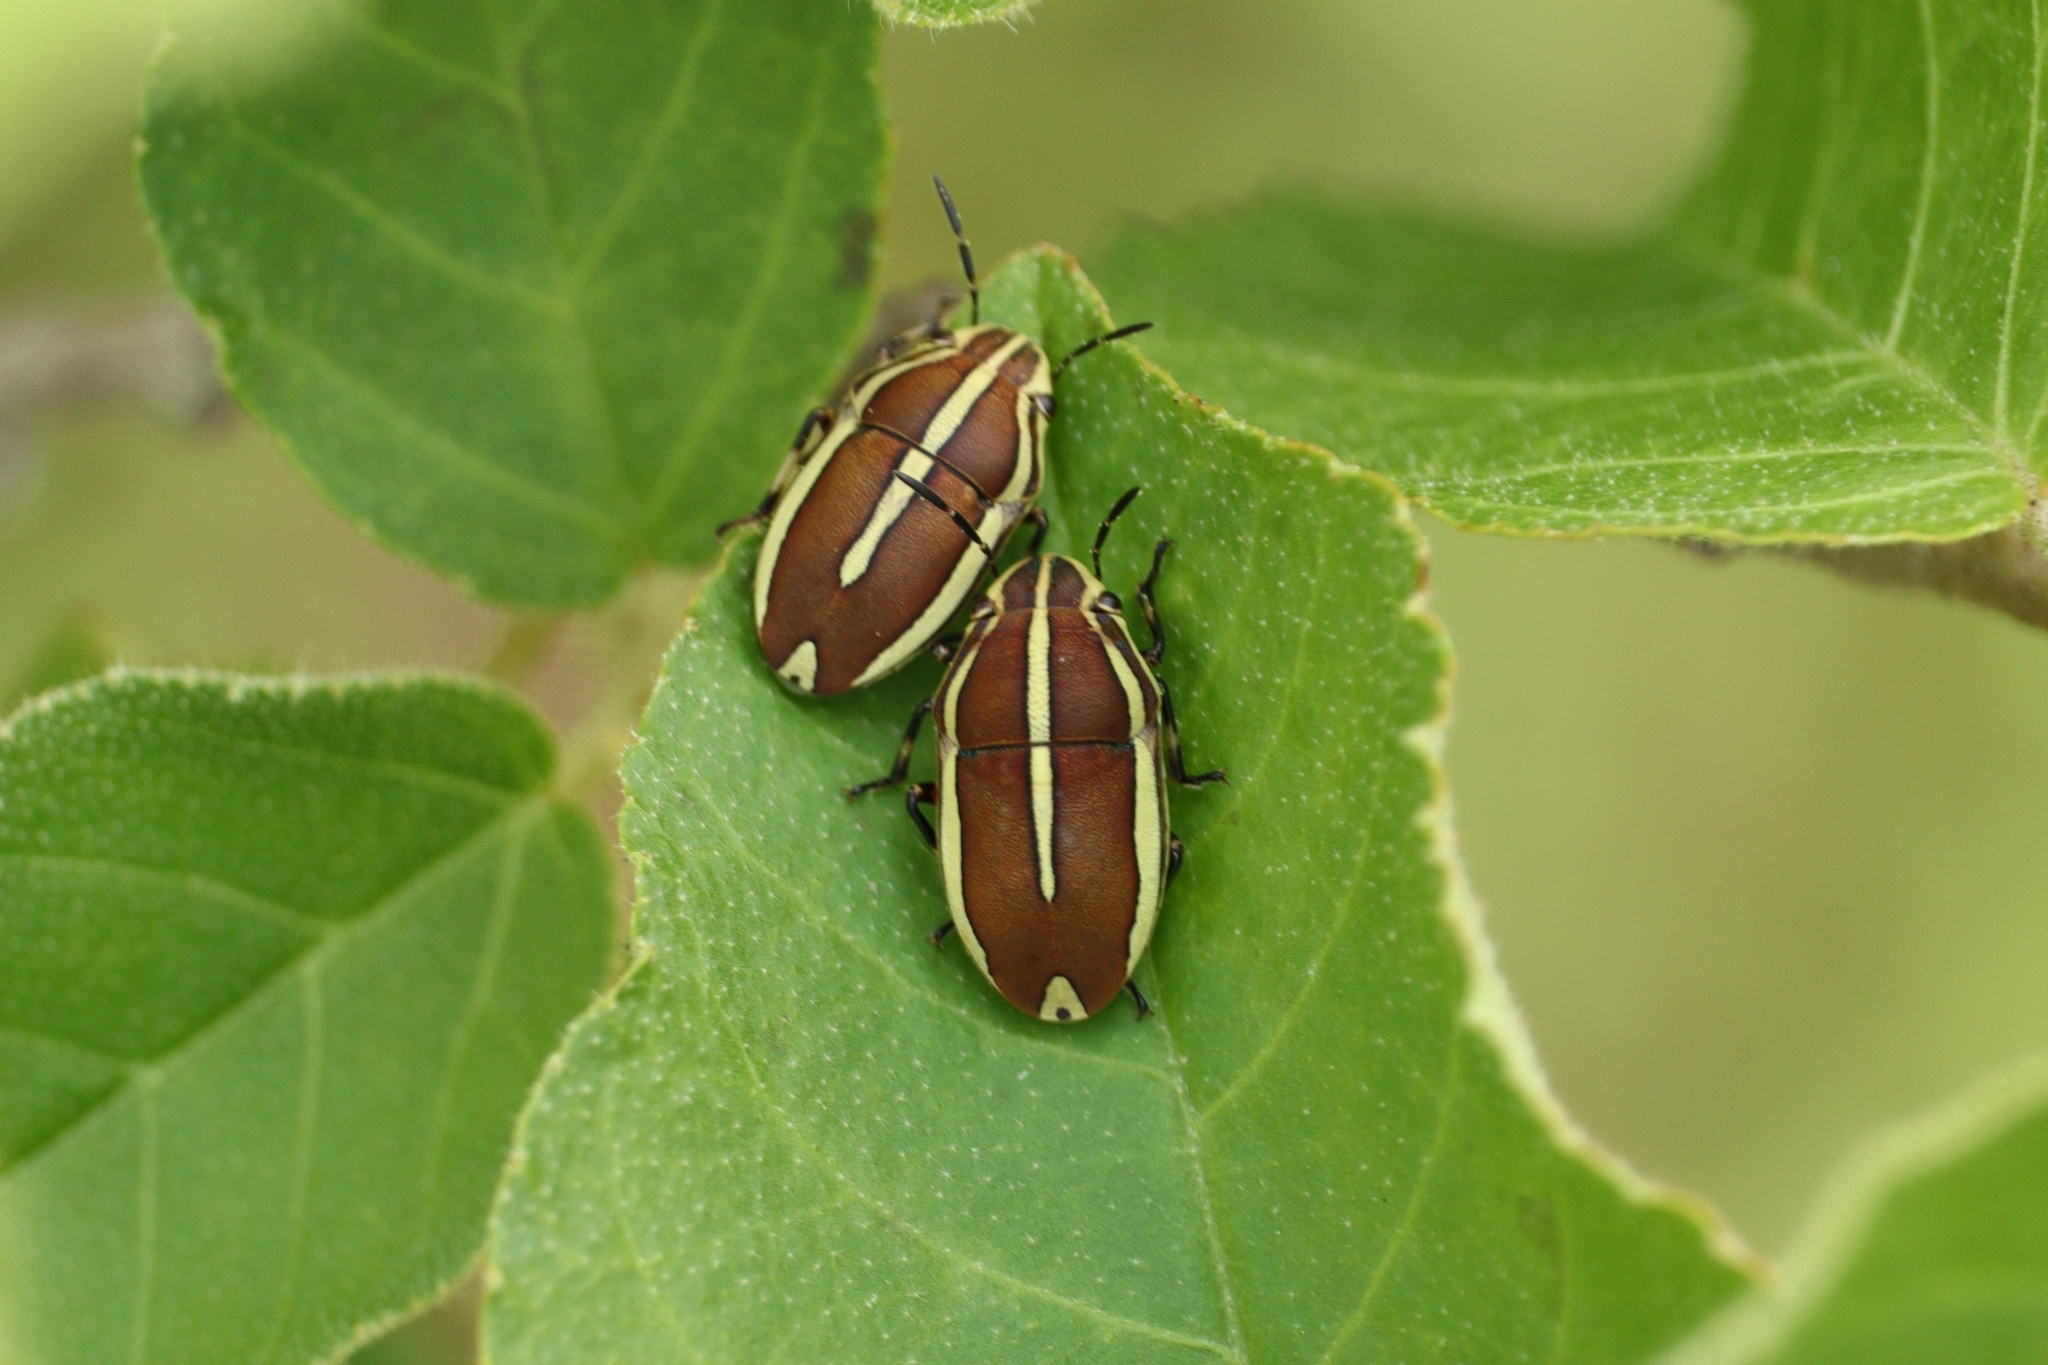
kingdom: Animalia
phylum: Arthropoda
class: Insecta
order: Hemiptera
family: Scutelleridae
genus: Agonosoma
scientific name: Agonosoma flavolineata
